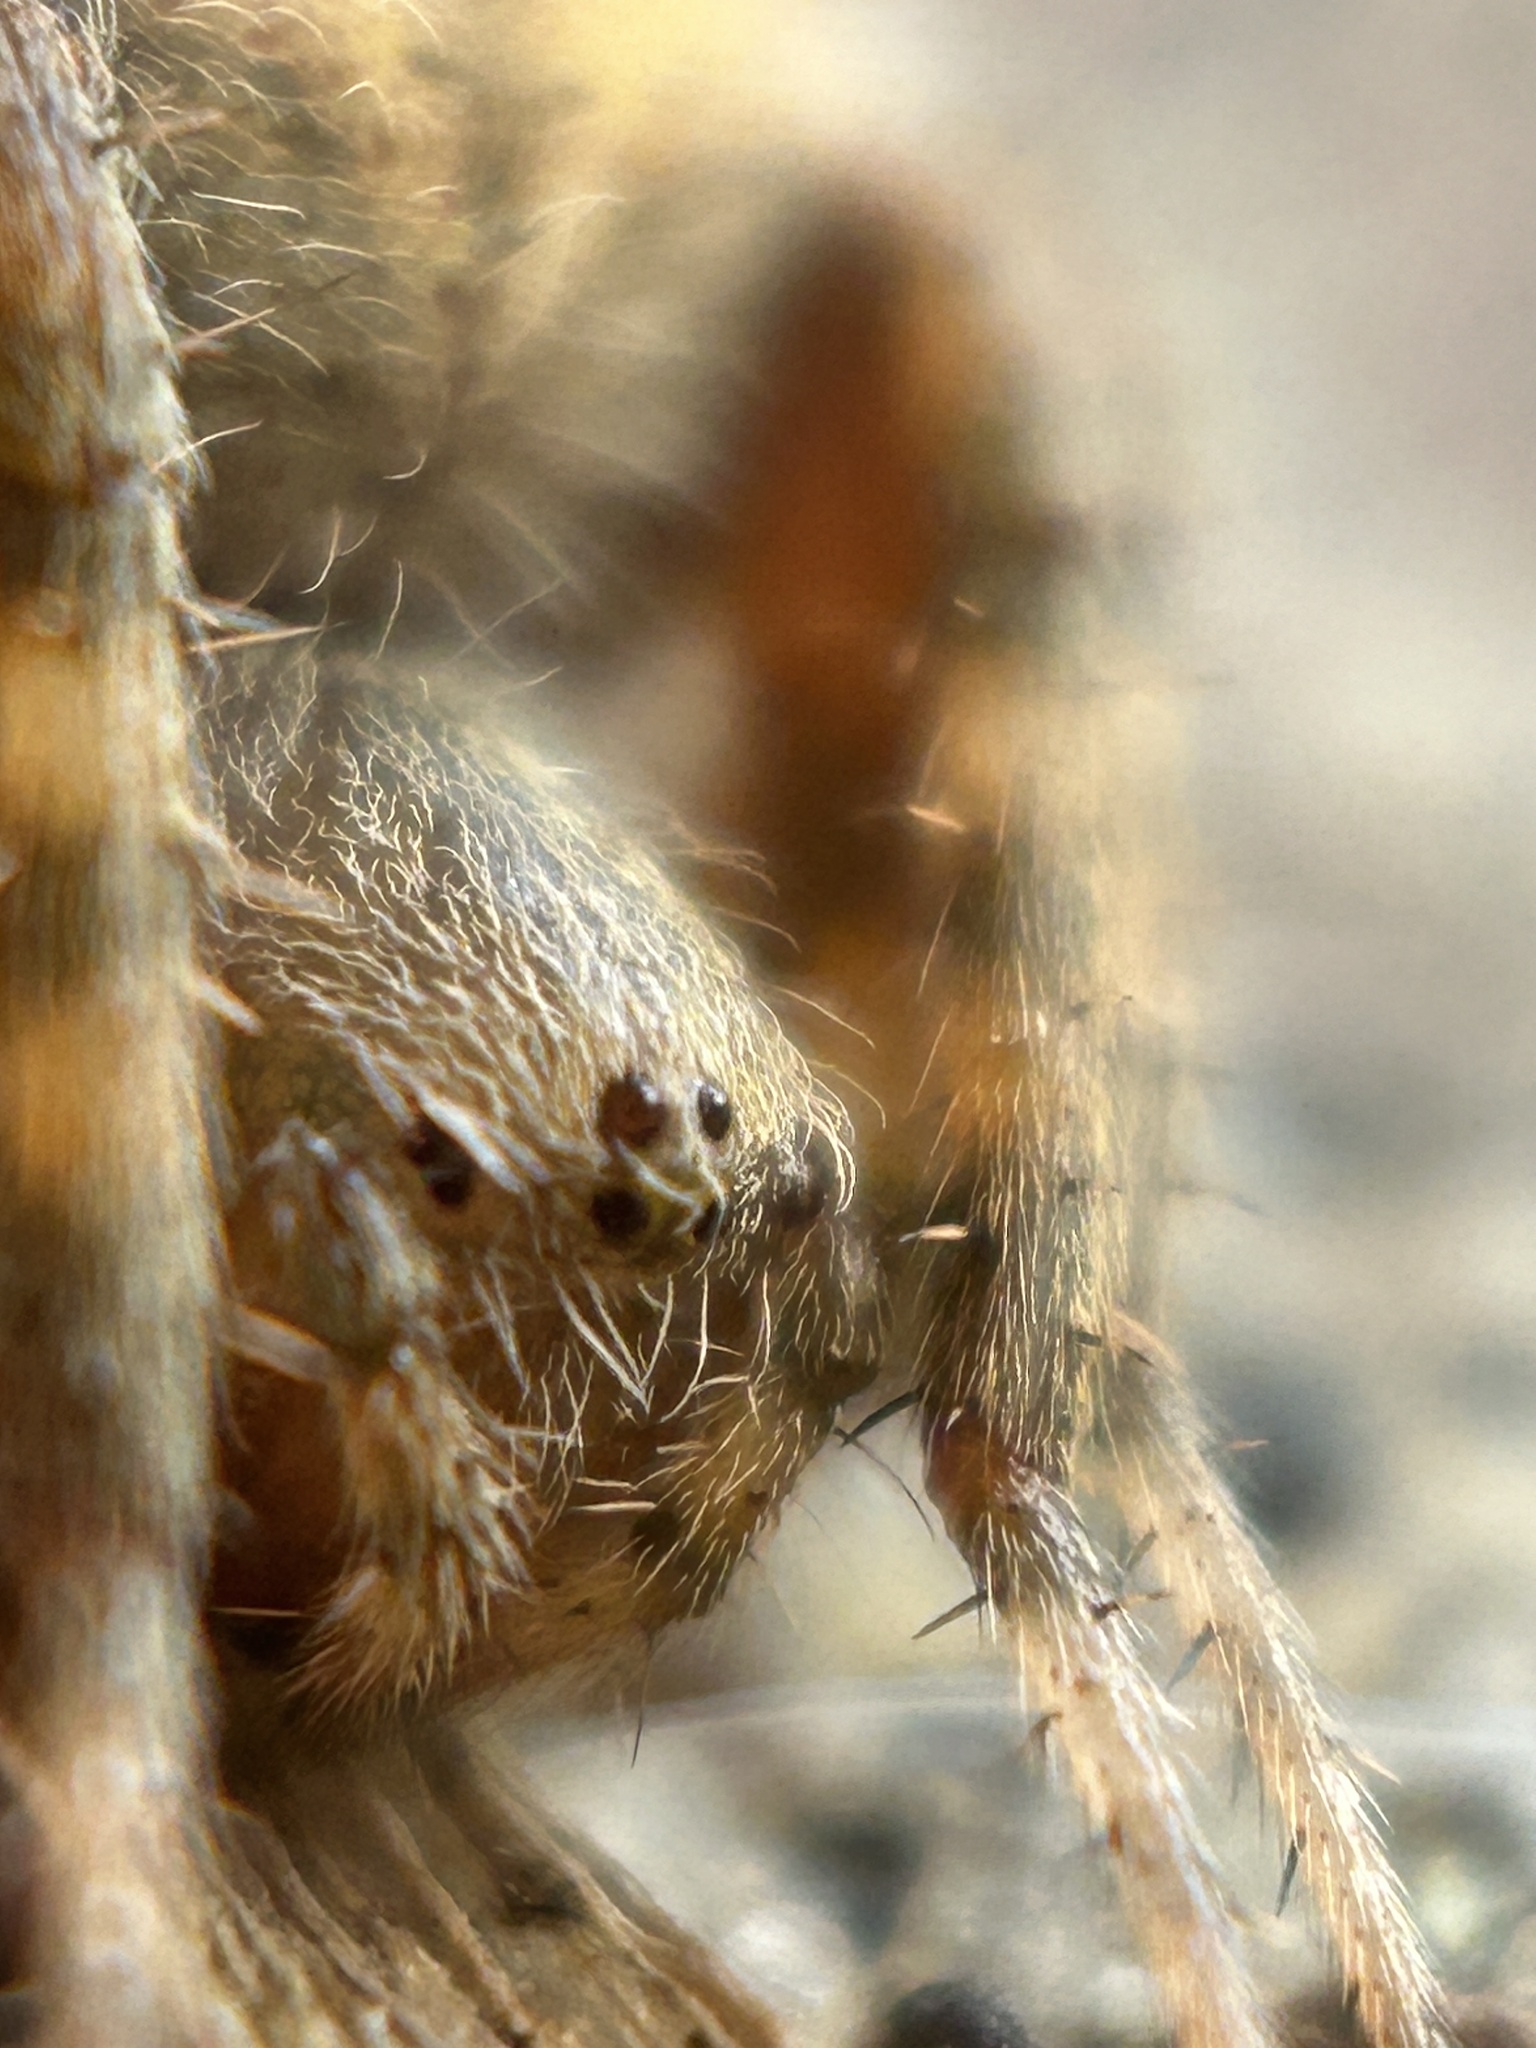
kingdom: Animalia
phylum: Arthropoda
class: Arachnida
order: Araneae
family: Araneidae
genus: Neoscona
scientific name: Neoscona crucifera
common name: Spotted orbweaver
